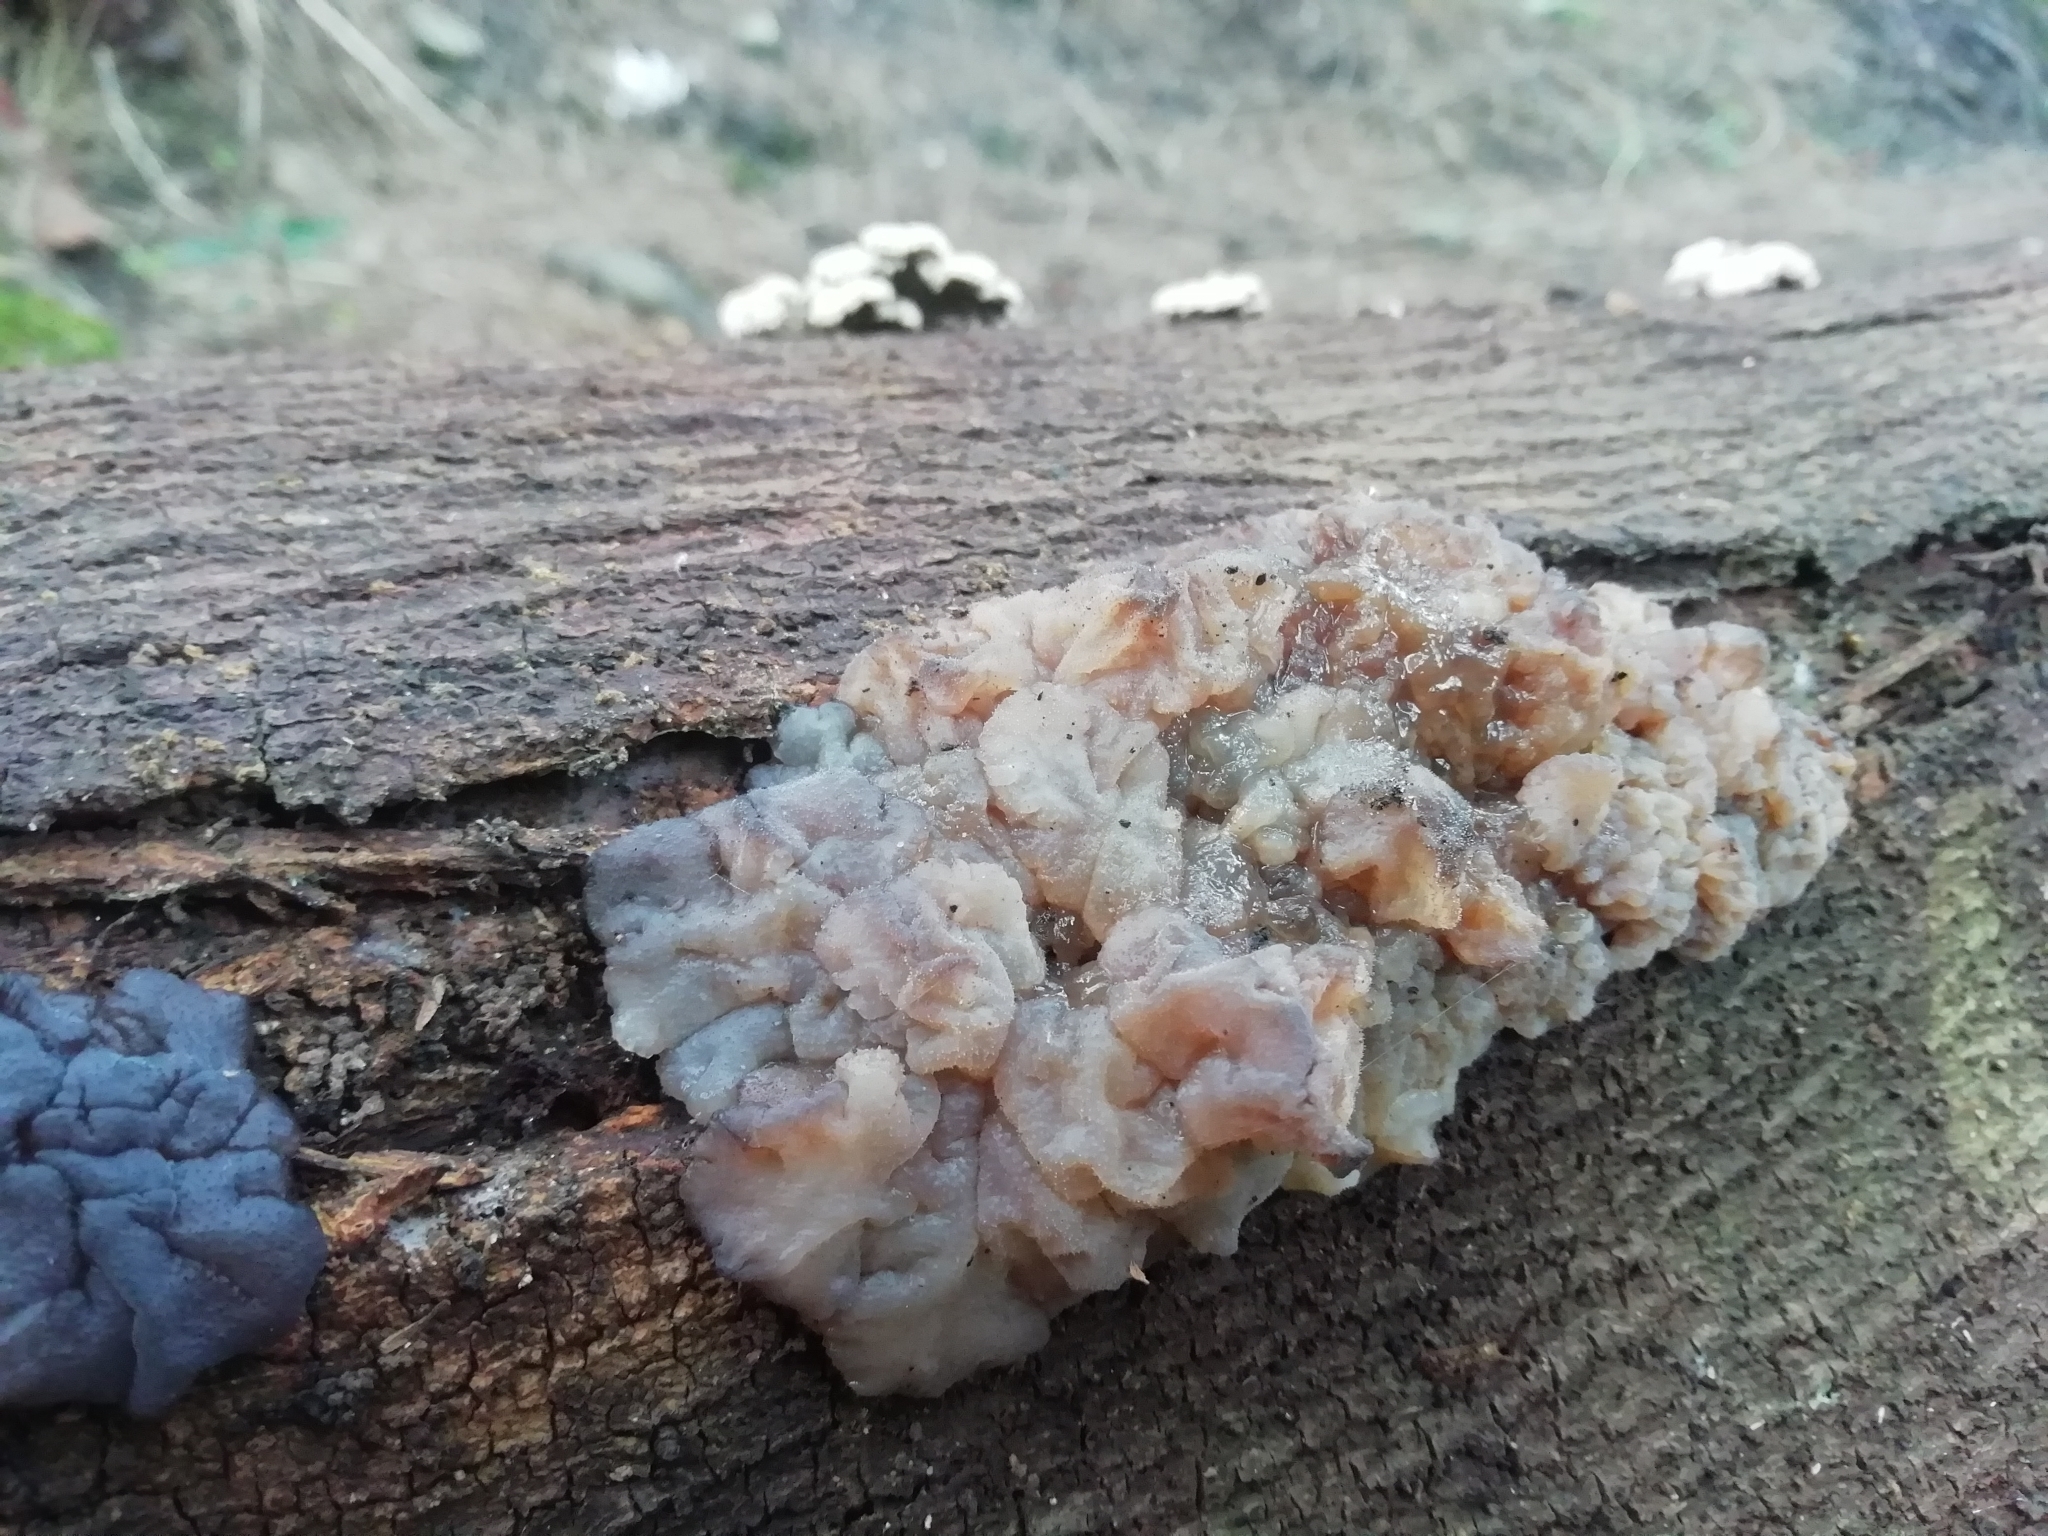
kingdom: Fungi
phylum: Basidiomycota
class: Agaricomycetes
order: Auriculariales
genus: Ductifera
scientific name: Ductifera pululahuana
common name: White jelly fungus
